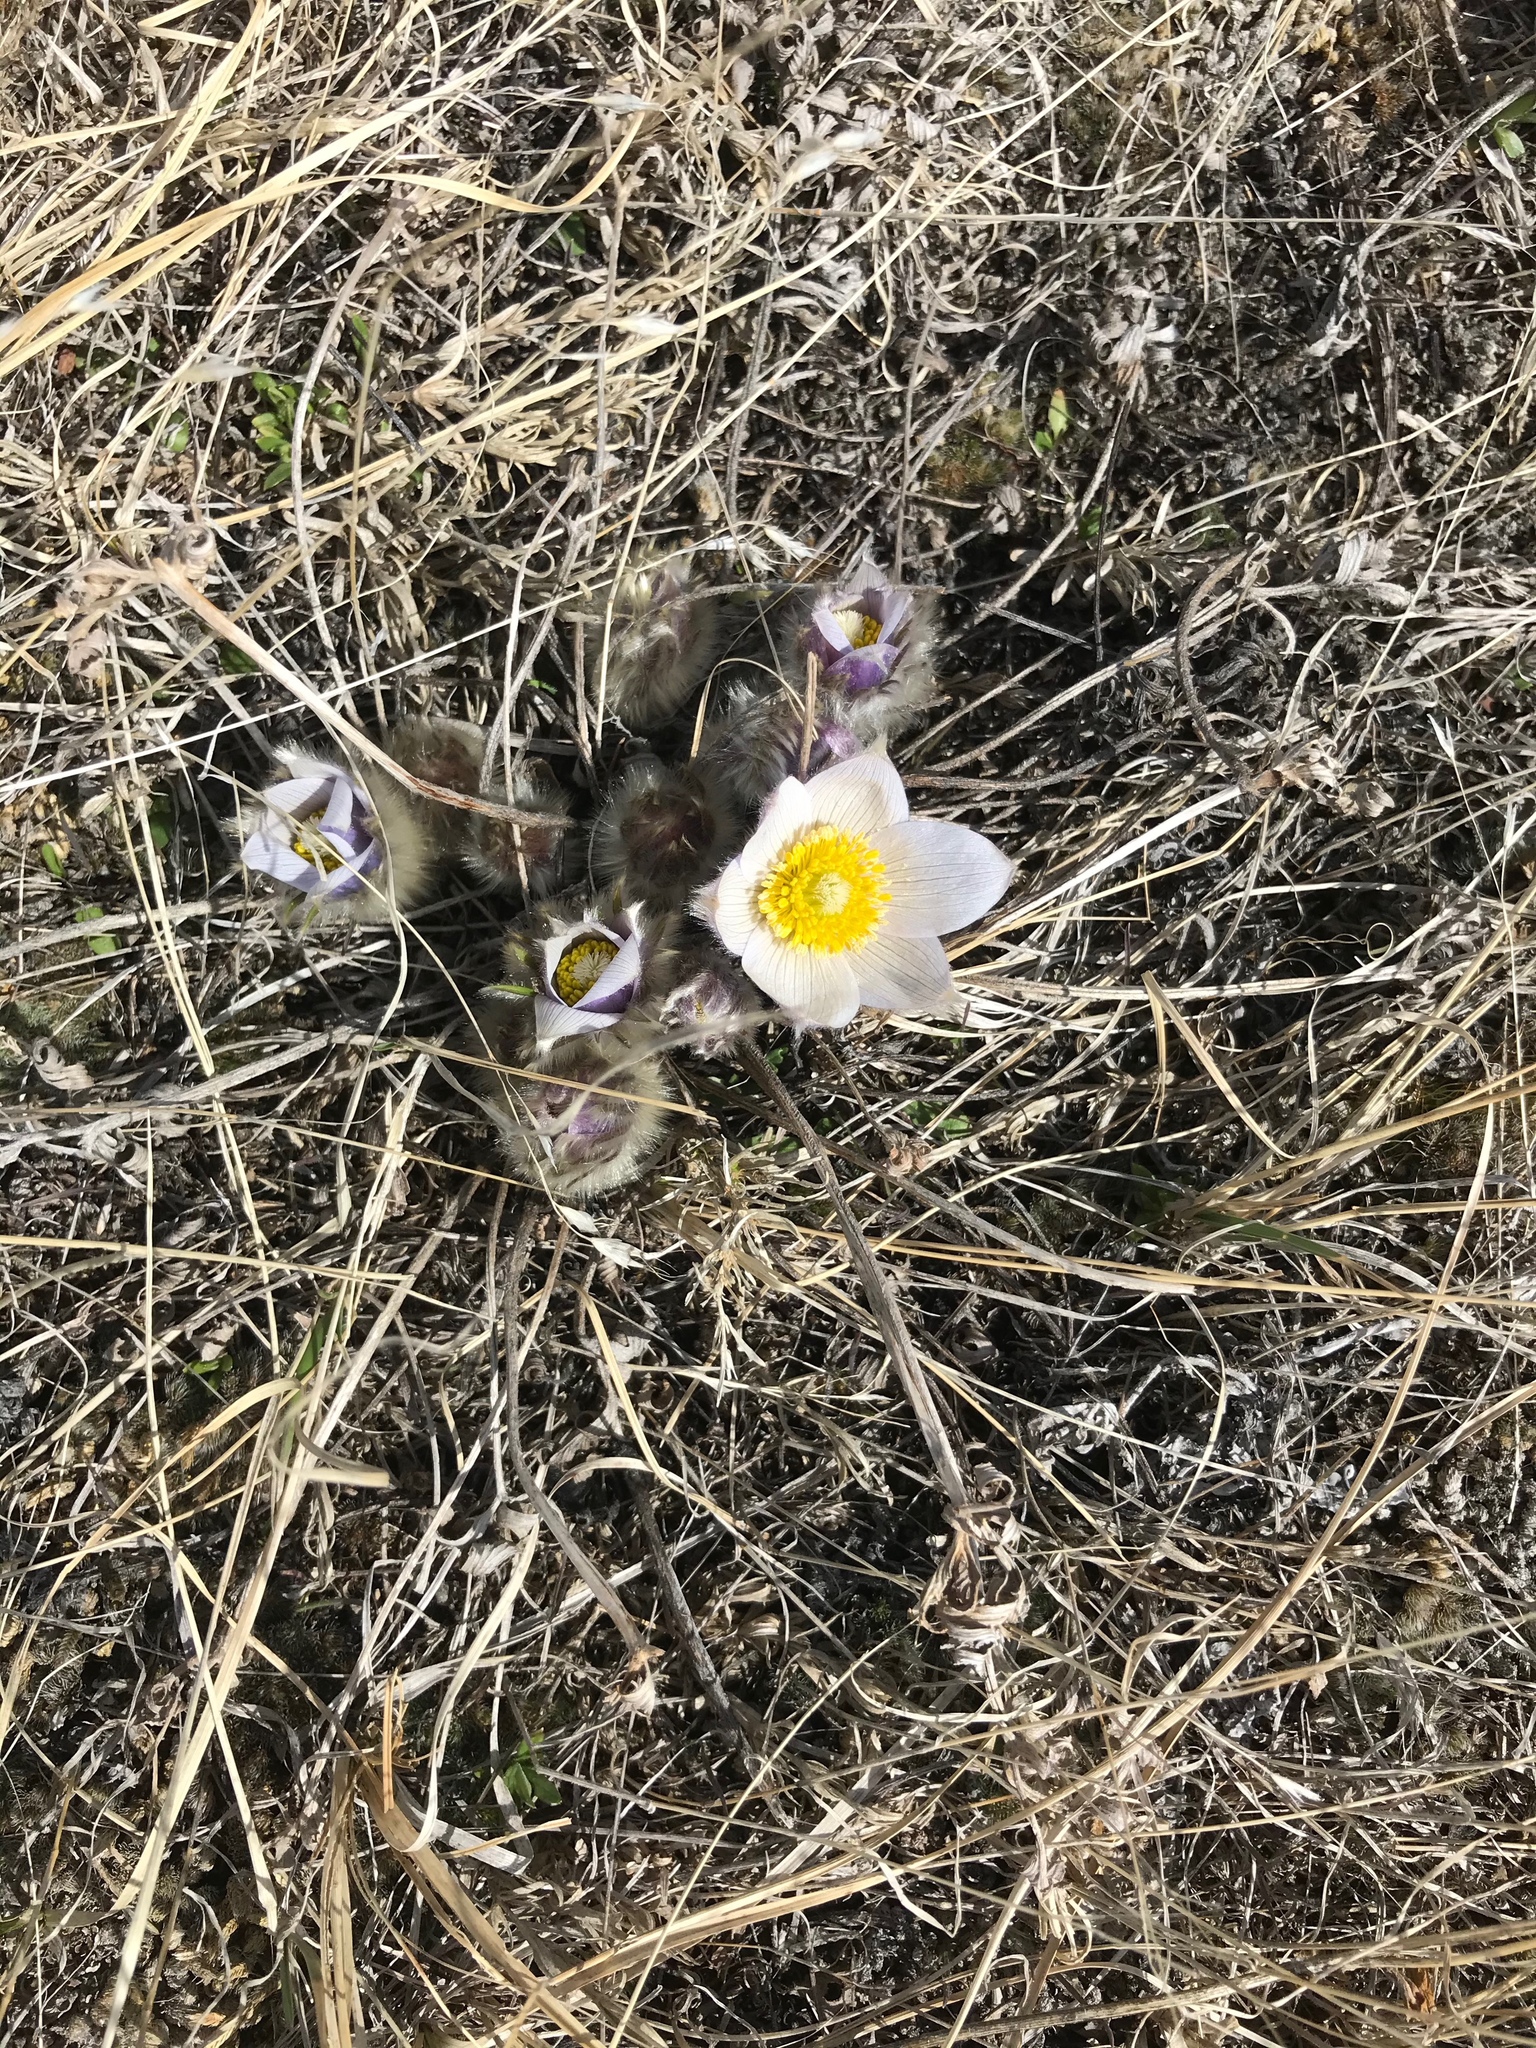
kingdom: Plantae
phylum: Tracheophyta
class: Magnoliopsida
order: Ranunculales
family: Ranunculaceae
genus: Pulsatilla
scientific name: Pulsatilla nuttalliana
